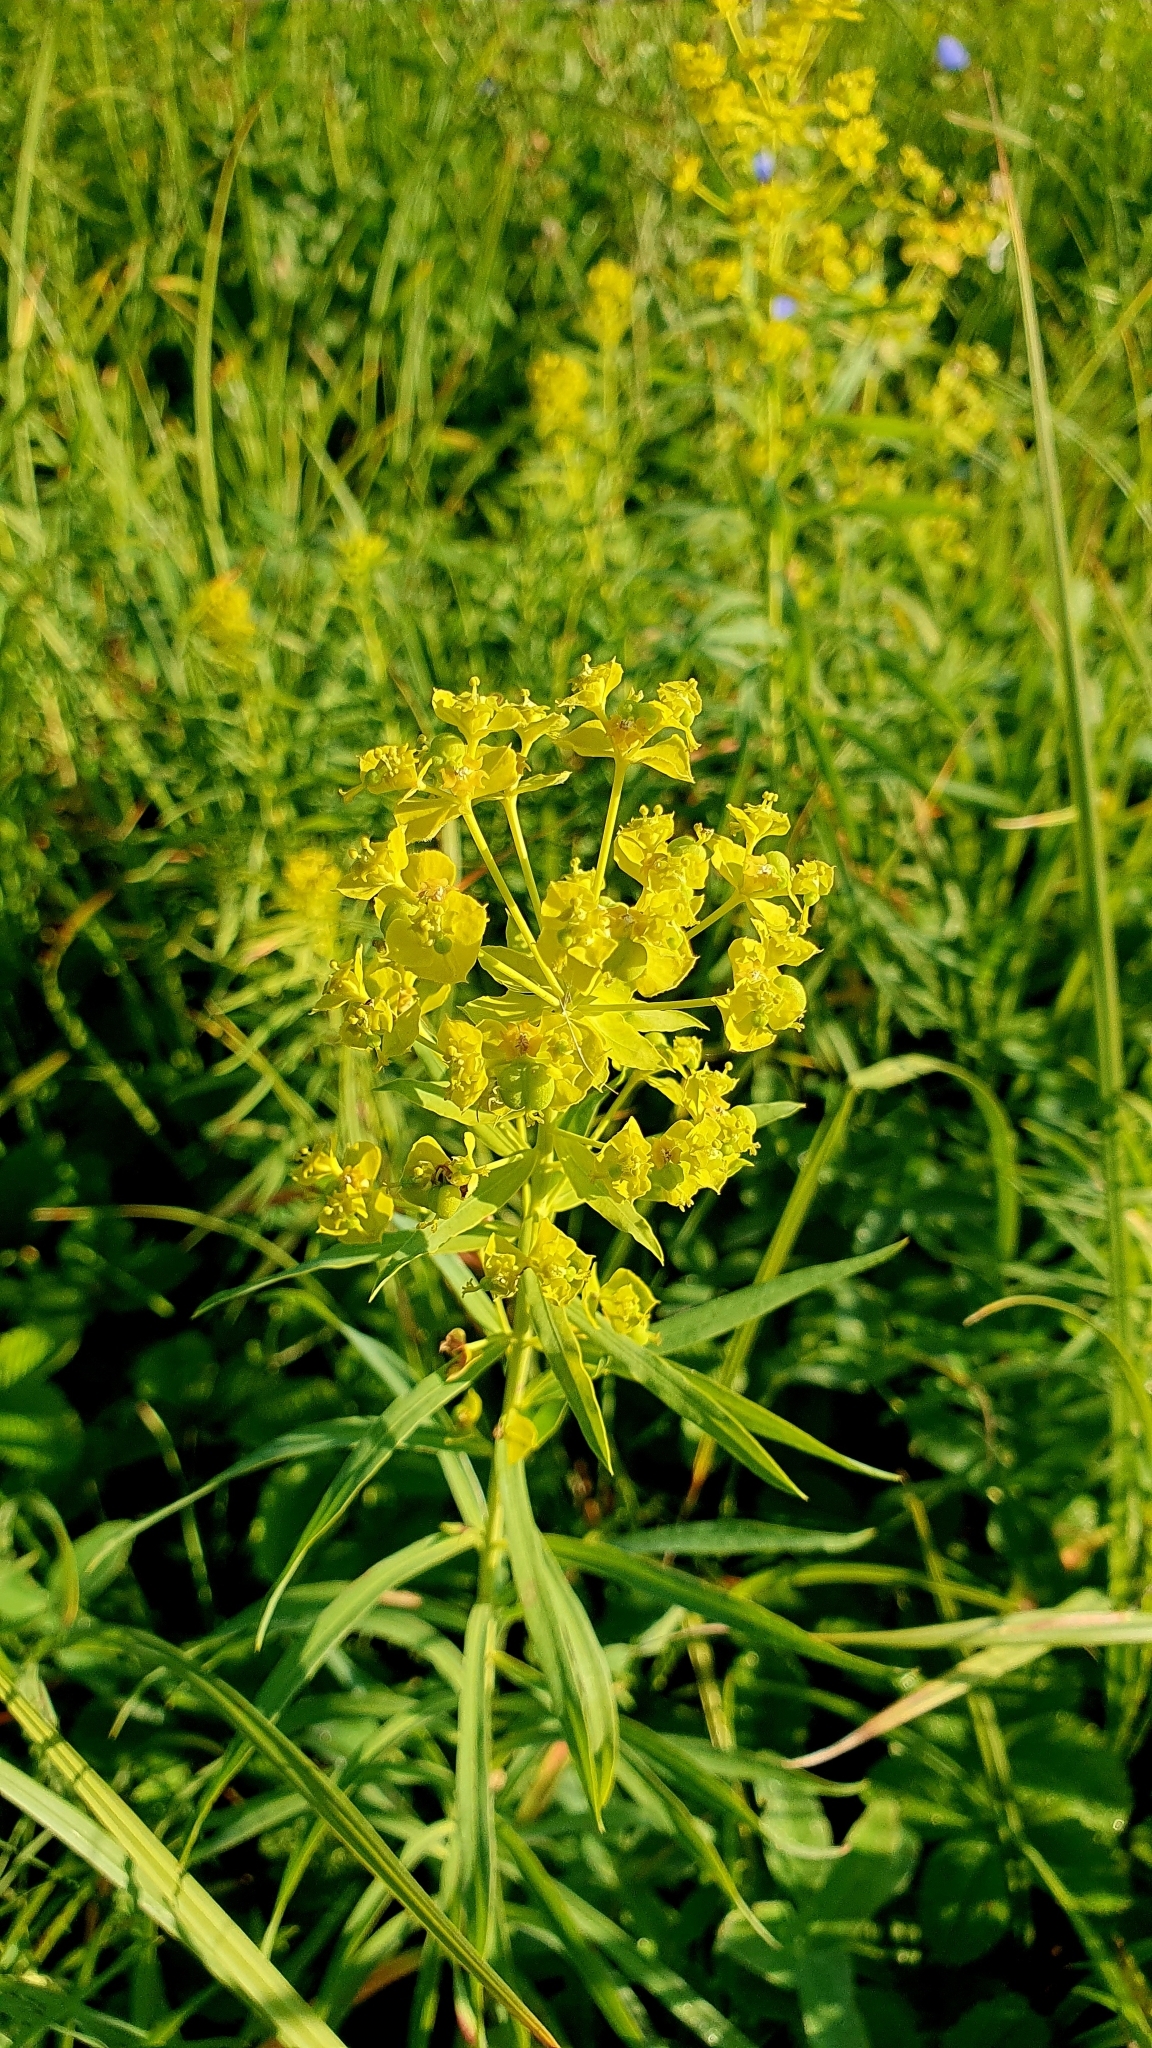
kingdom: Plantae
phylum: Tracheophyta
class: Magnoliopsida
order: Malpighiales
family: Euphorbiaceae
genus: Euphorbia
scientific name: Euphorbia virgata
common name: Leafy spurge
